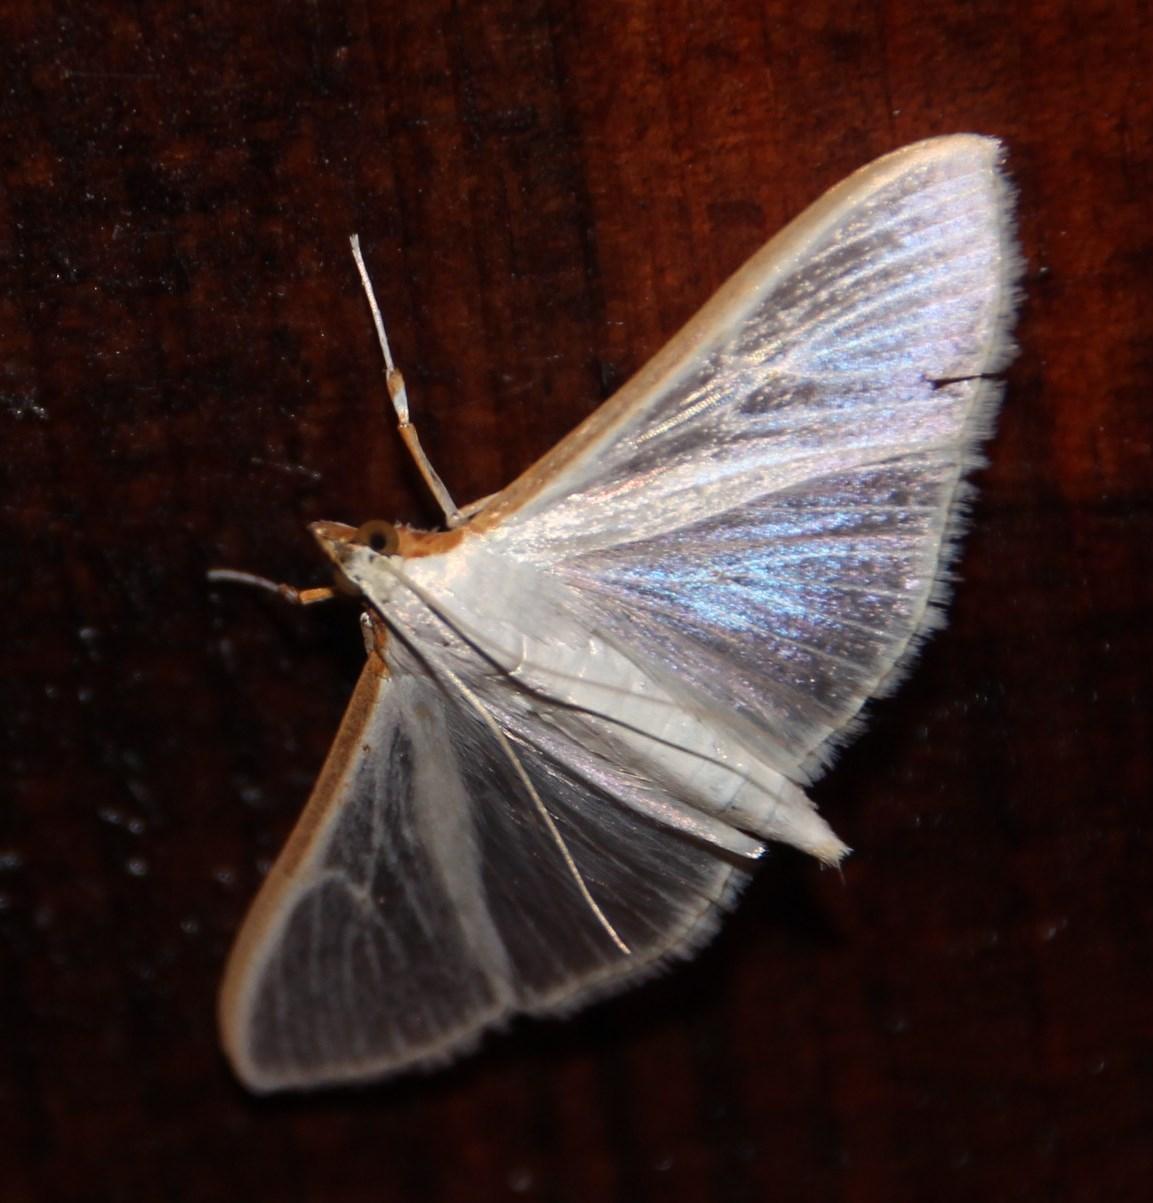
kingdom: Animalia
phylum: Arthropoda
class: Insecta
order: Lepidoptera
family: Crambidae
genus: Palpita
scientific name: Palpita vitrealis
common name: Olive-tree pearl
